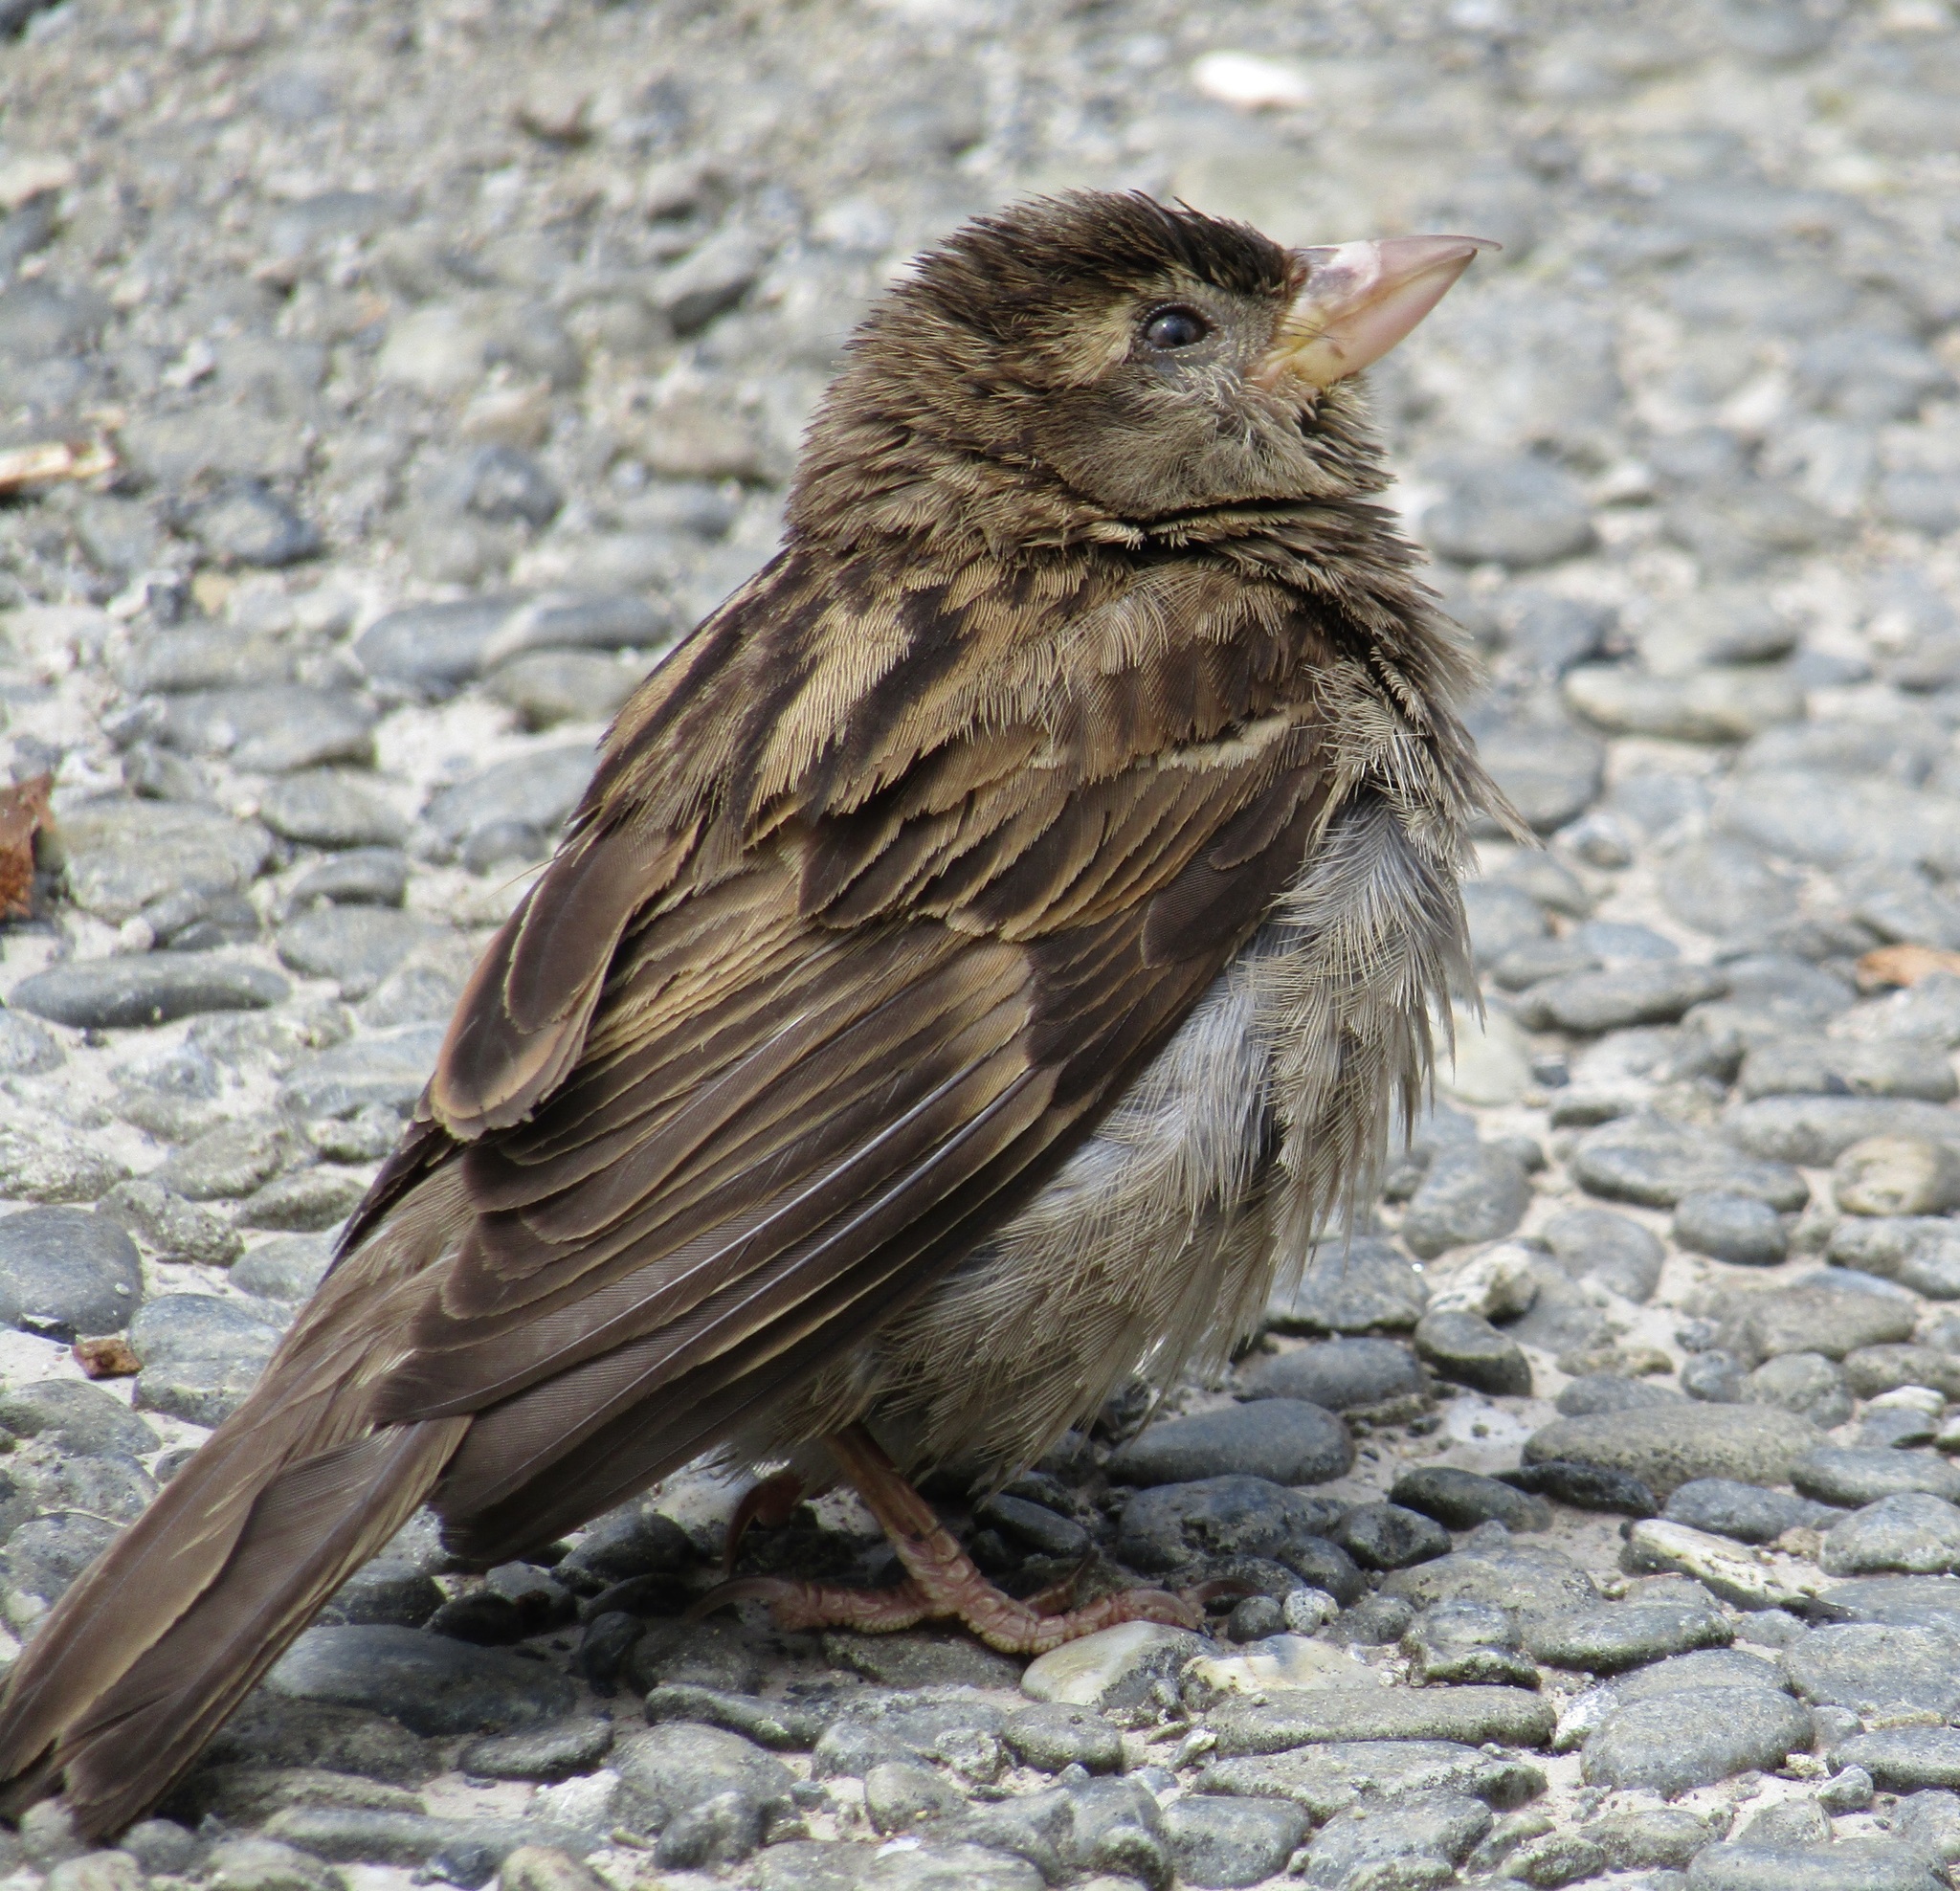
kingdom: Animalia
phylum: Chordata
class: Aves
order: Passeriformes
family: Passeridae
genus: Passer
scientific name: Passer domesticus
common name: House sparrow
